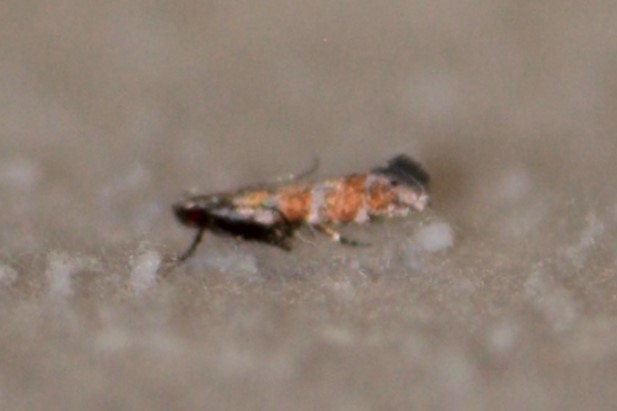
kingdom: Animalia
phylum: Arthropoda
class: Insecta
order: Lepidoptera
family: Gelechiidae
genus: Battaristis
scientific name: Battaristis vittella
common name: Orange stripe-backed moth
